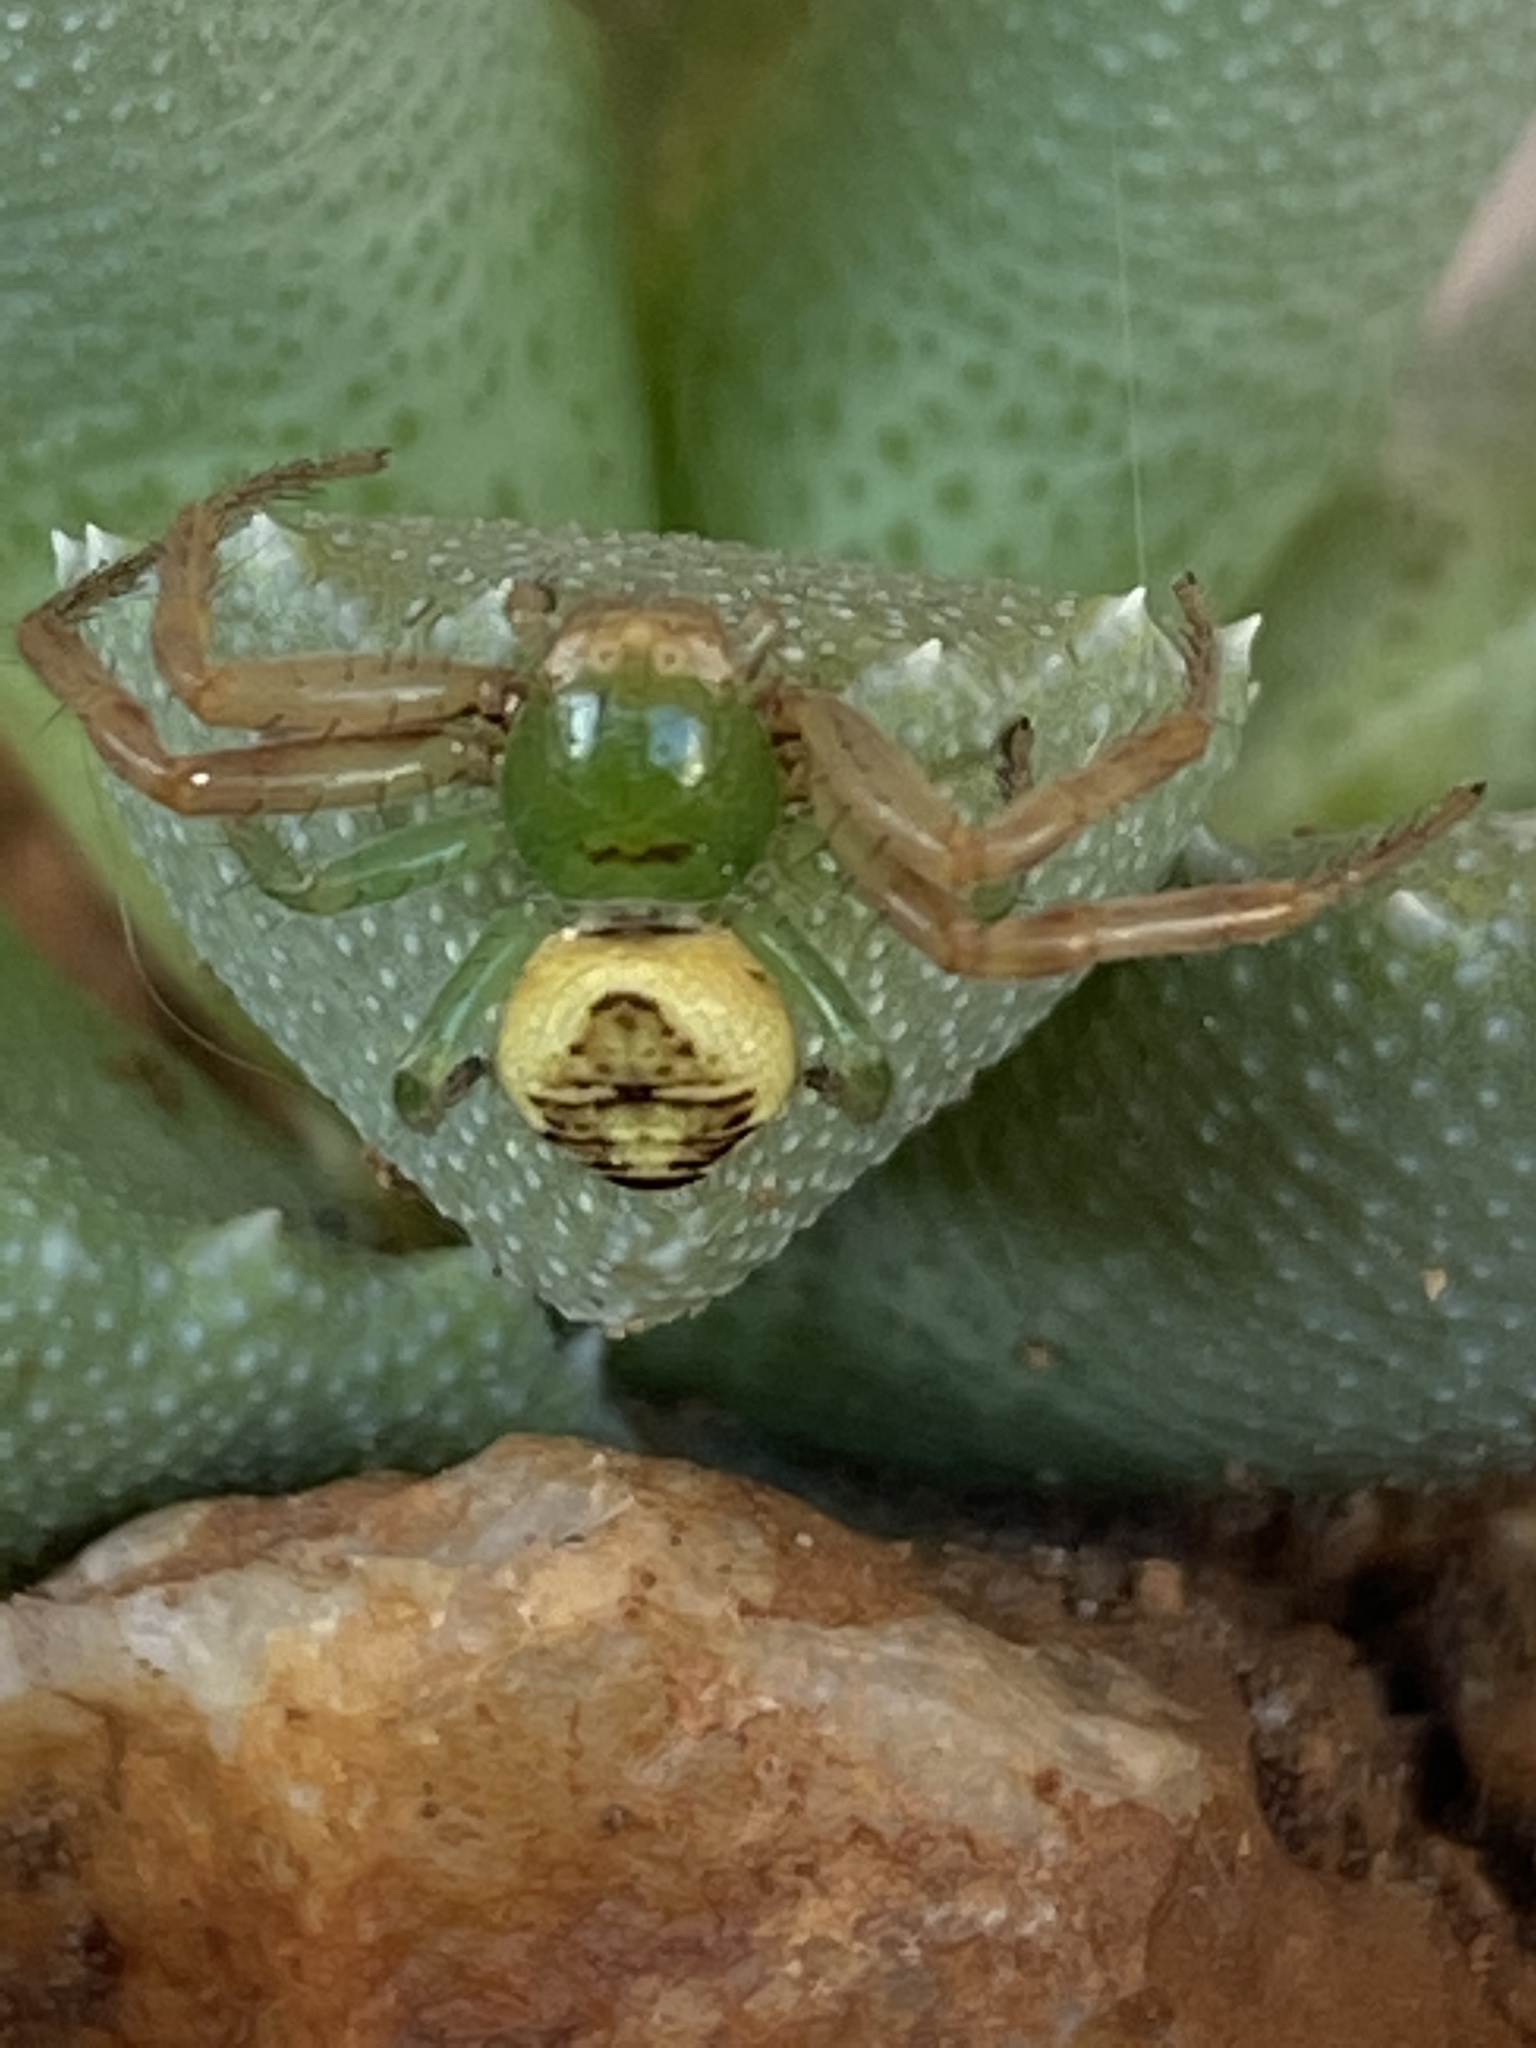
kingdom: Animalia
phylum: Arthropoda
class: Arachnida
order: Araneae
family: Thomisidae
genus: Synema
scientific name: Synema imitatrix
